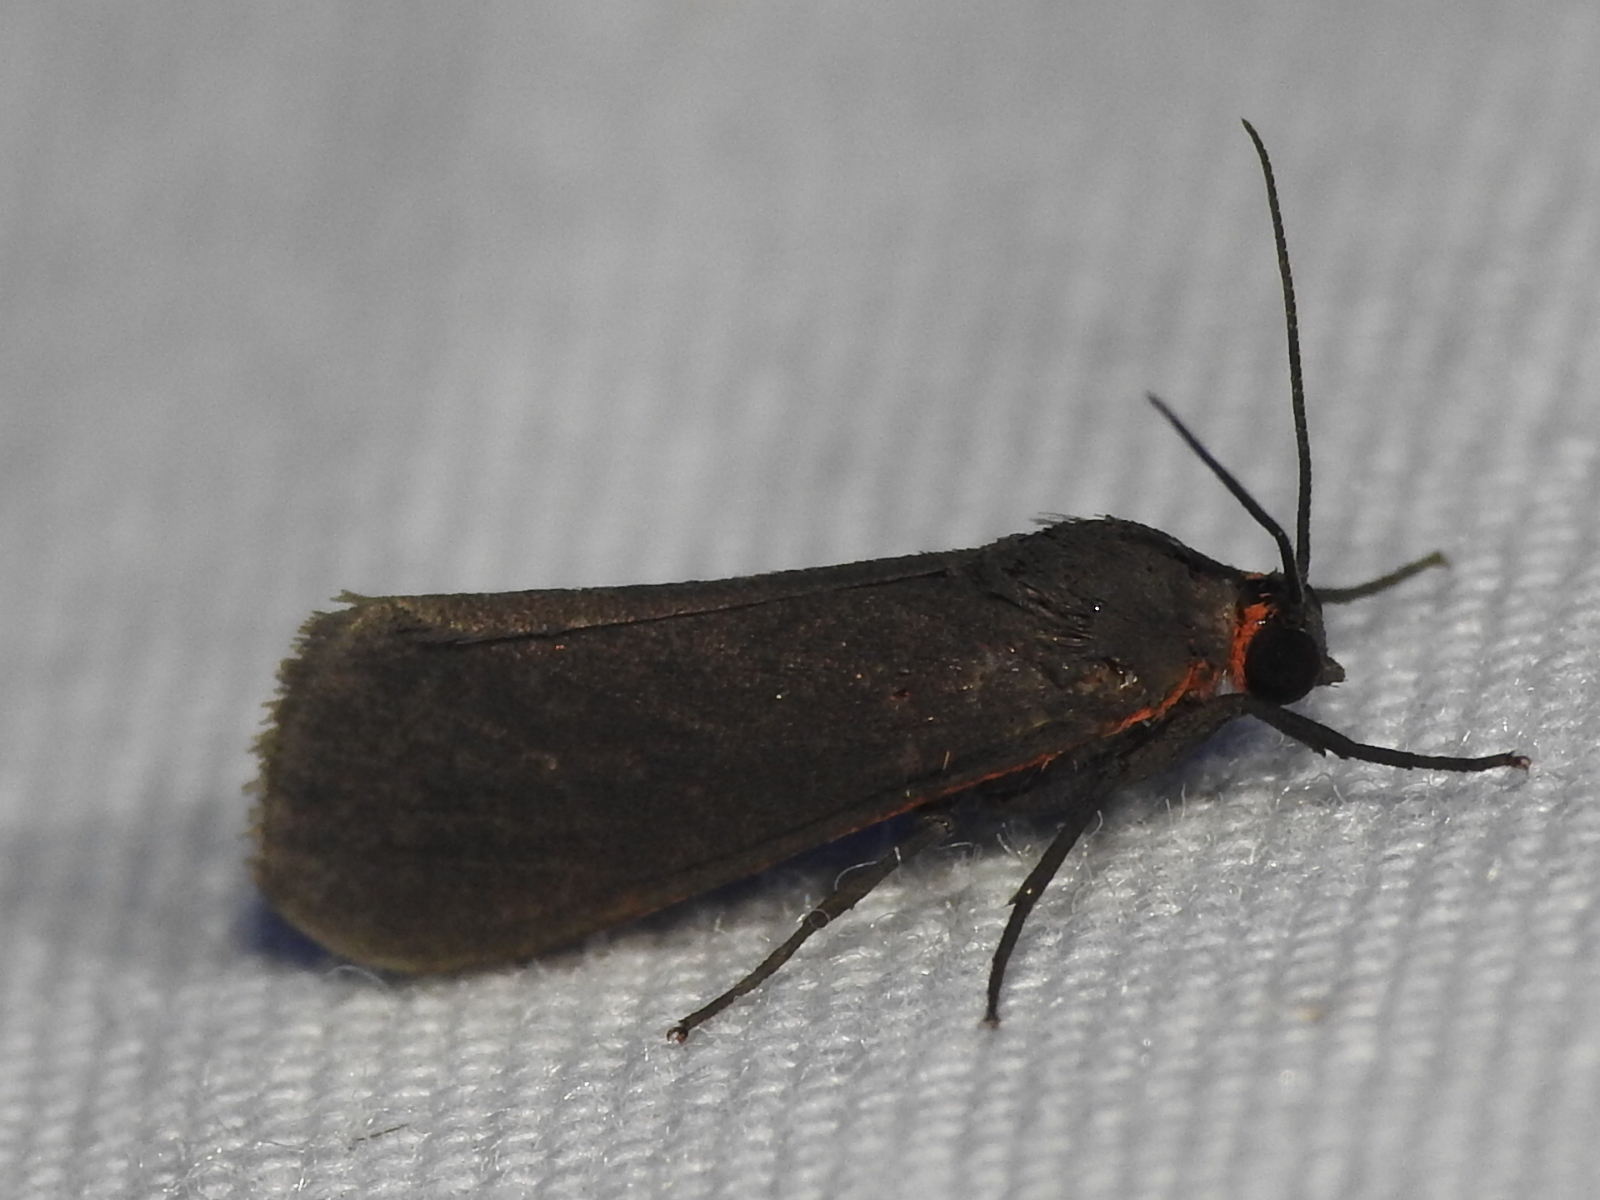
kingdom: Animalia
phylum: Arthropoda
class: Insecta
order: Lepidoptera
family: Erebidae
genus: Virbia
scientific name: Virbia laeta
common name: Joyful holomelina moth
